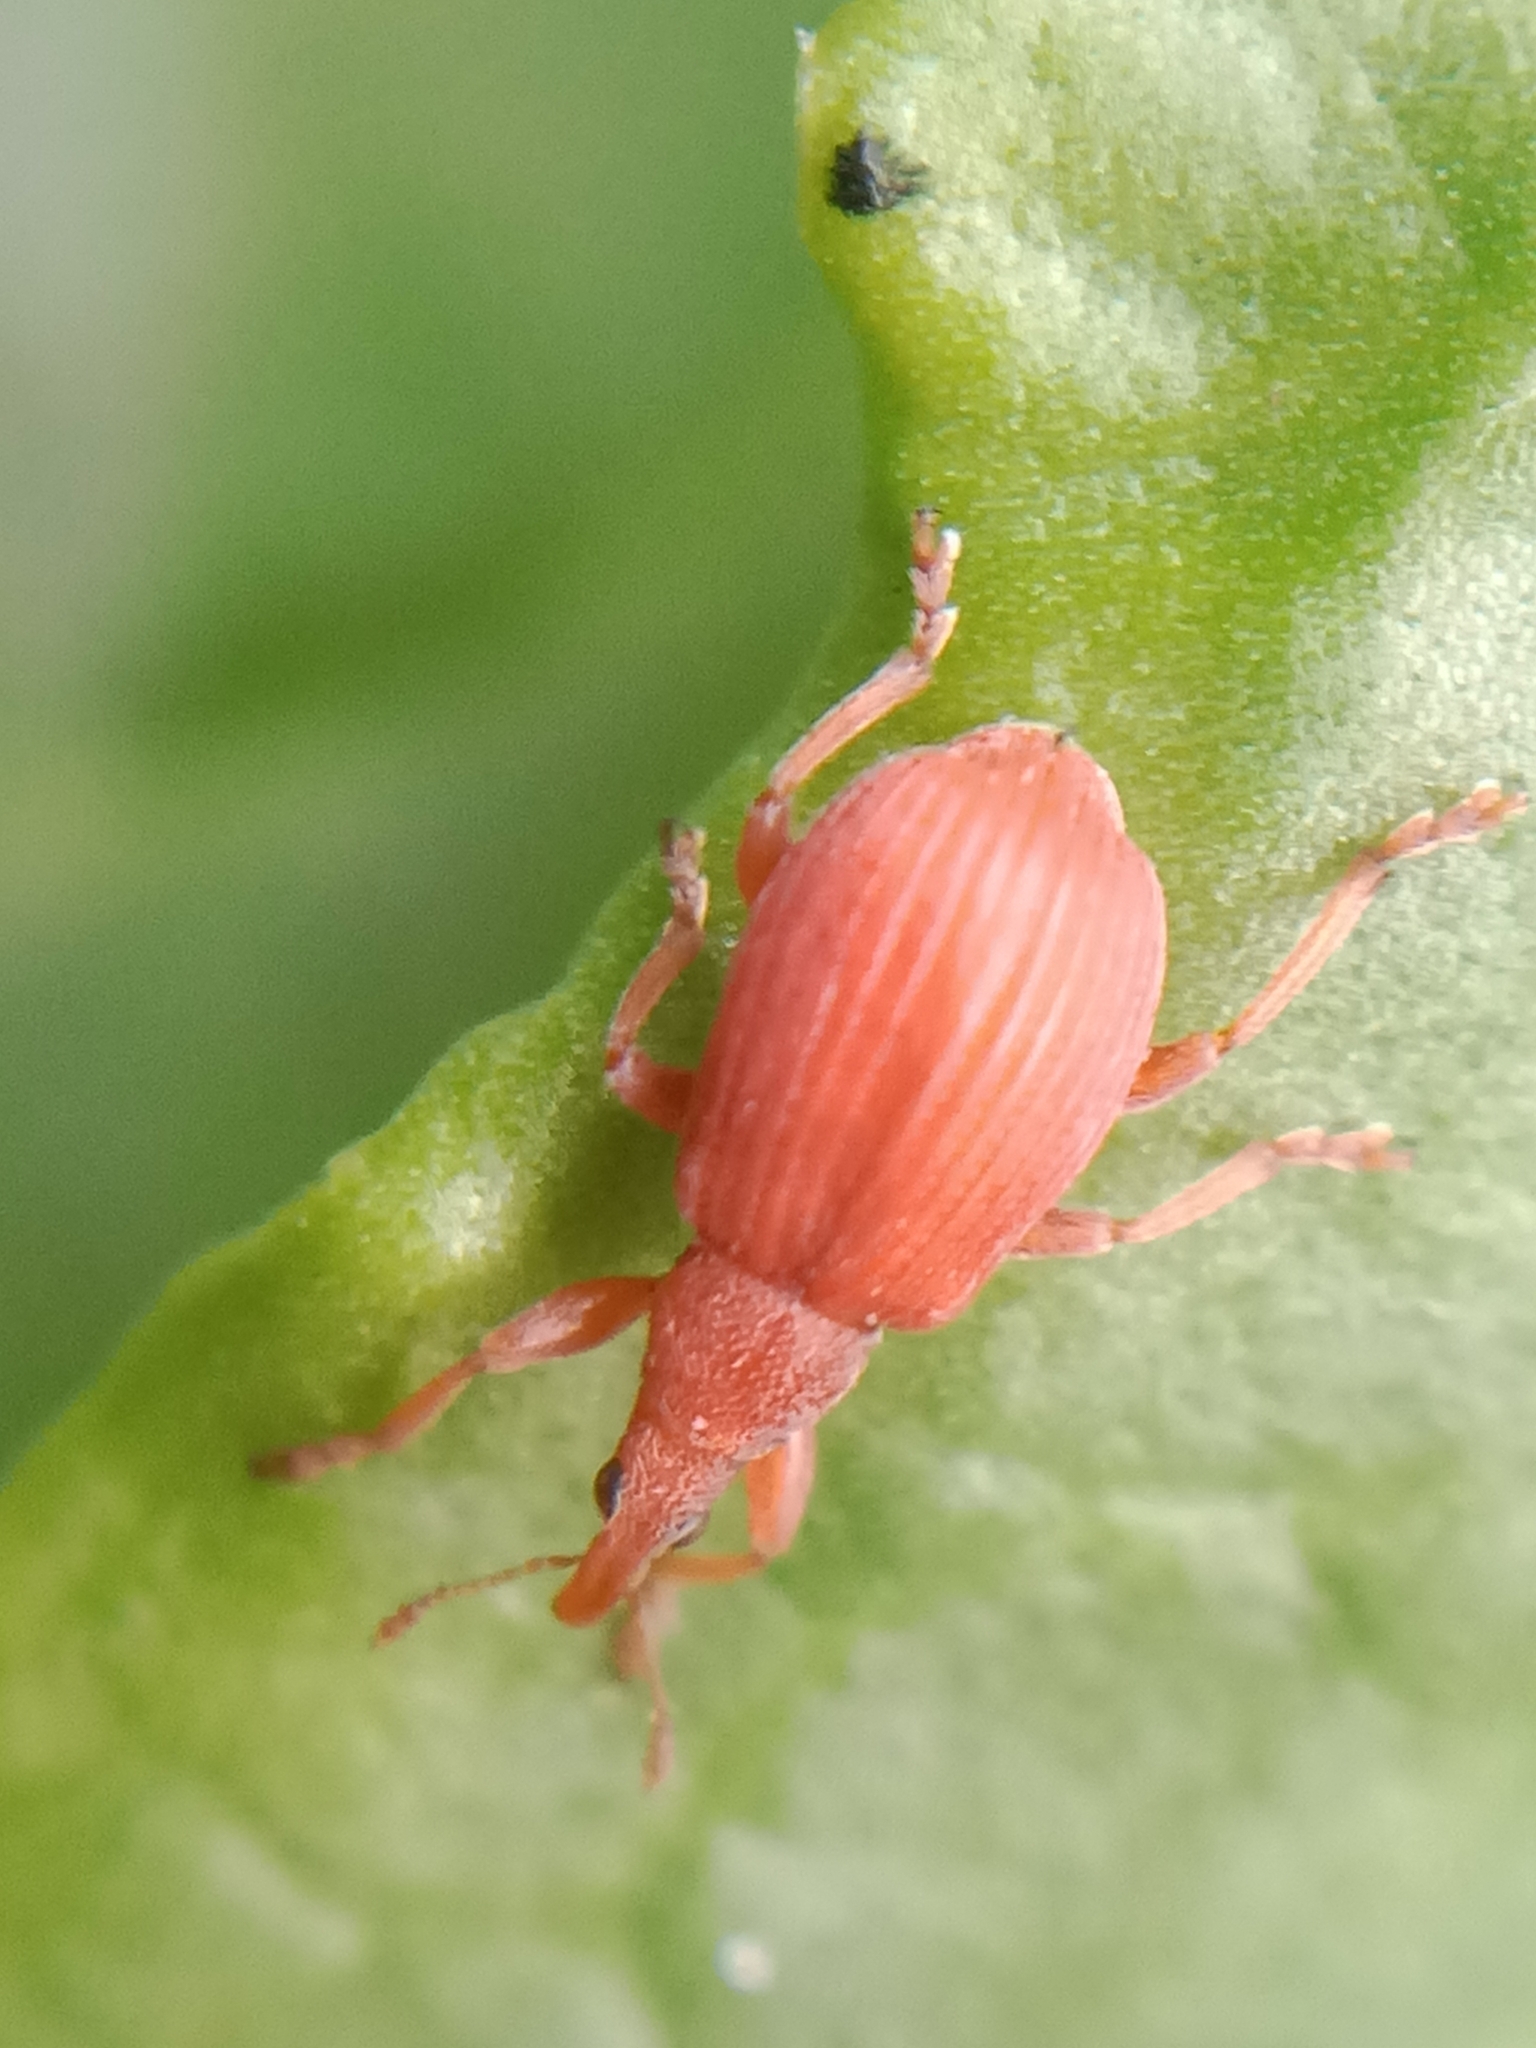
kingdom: Animalia
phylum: Arthropoda
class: Insecta
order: Coleoptera
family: Apionidae
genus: Apion
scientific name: Apion frumentarium
